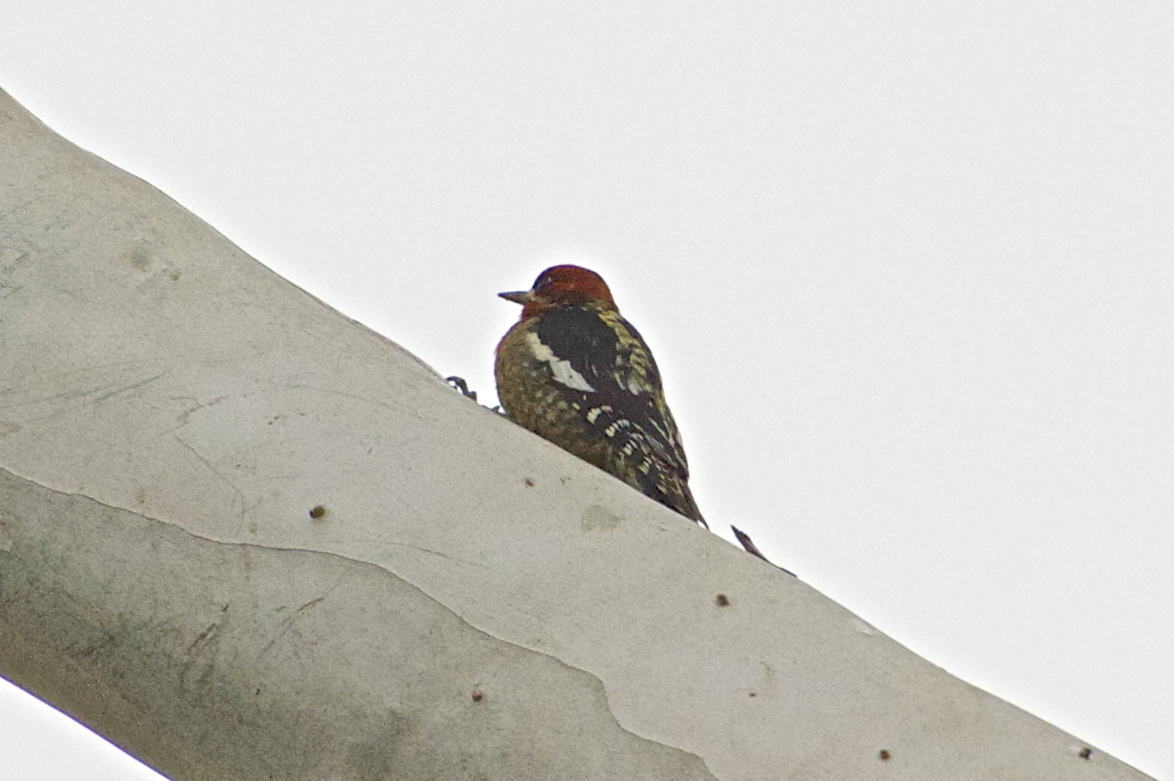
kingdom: Animalia
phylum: Chordata
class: Aves
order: Piciformes
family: Picidae
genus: Sphyrapicus
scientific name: Sphyrapicus ruber
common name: Red-breasted sapsucker
